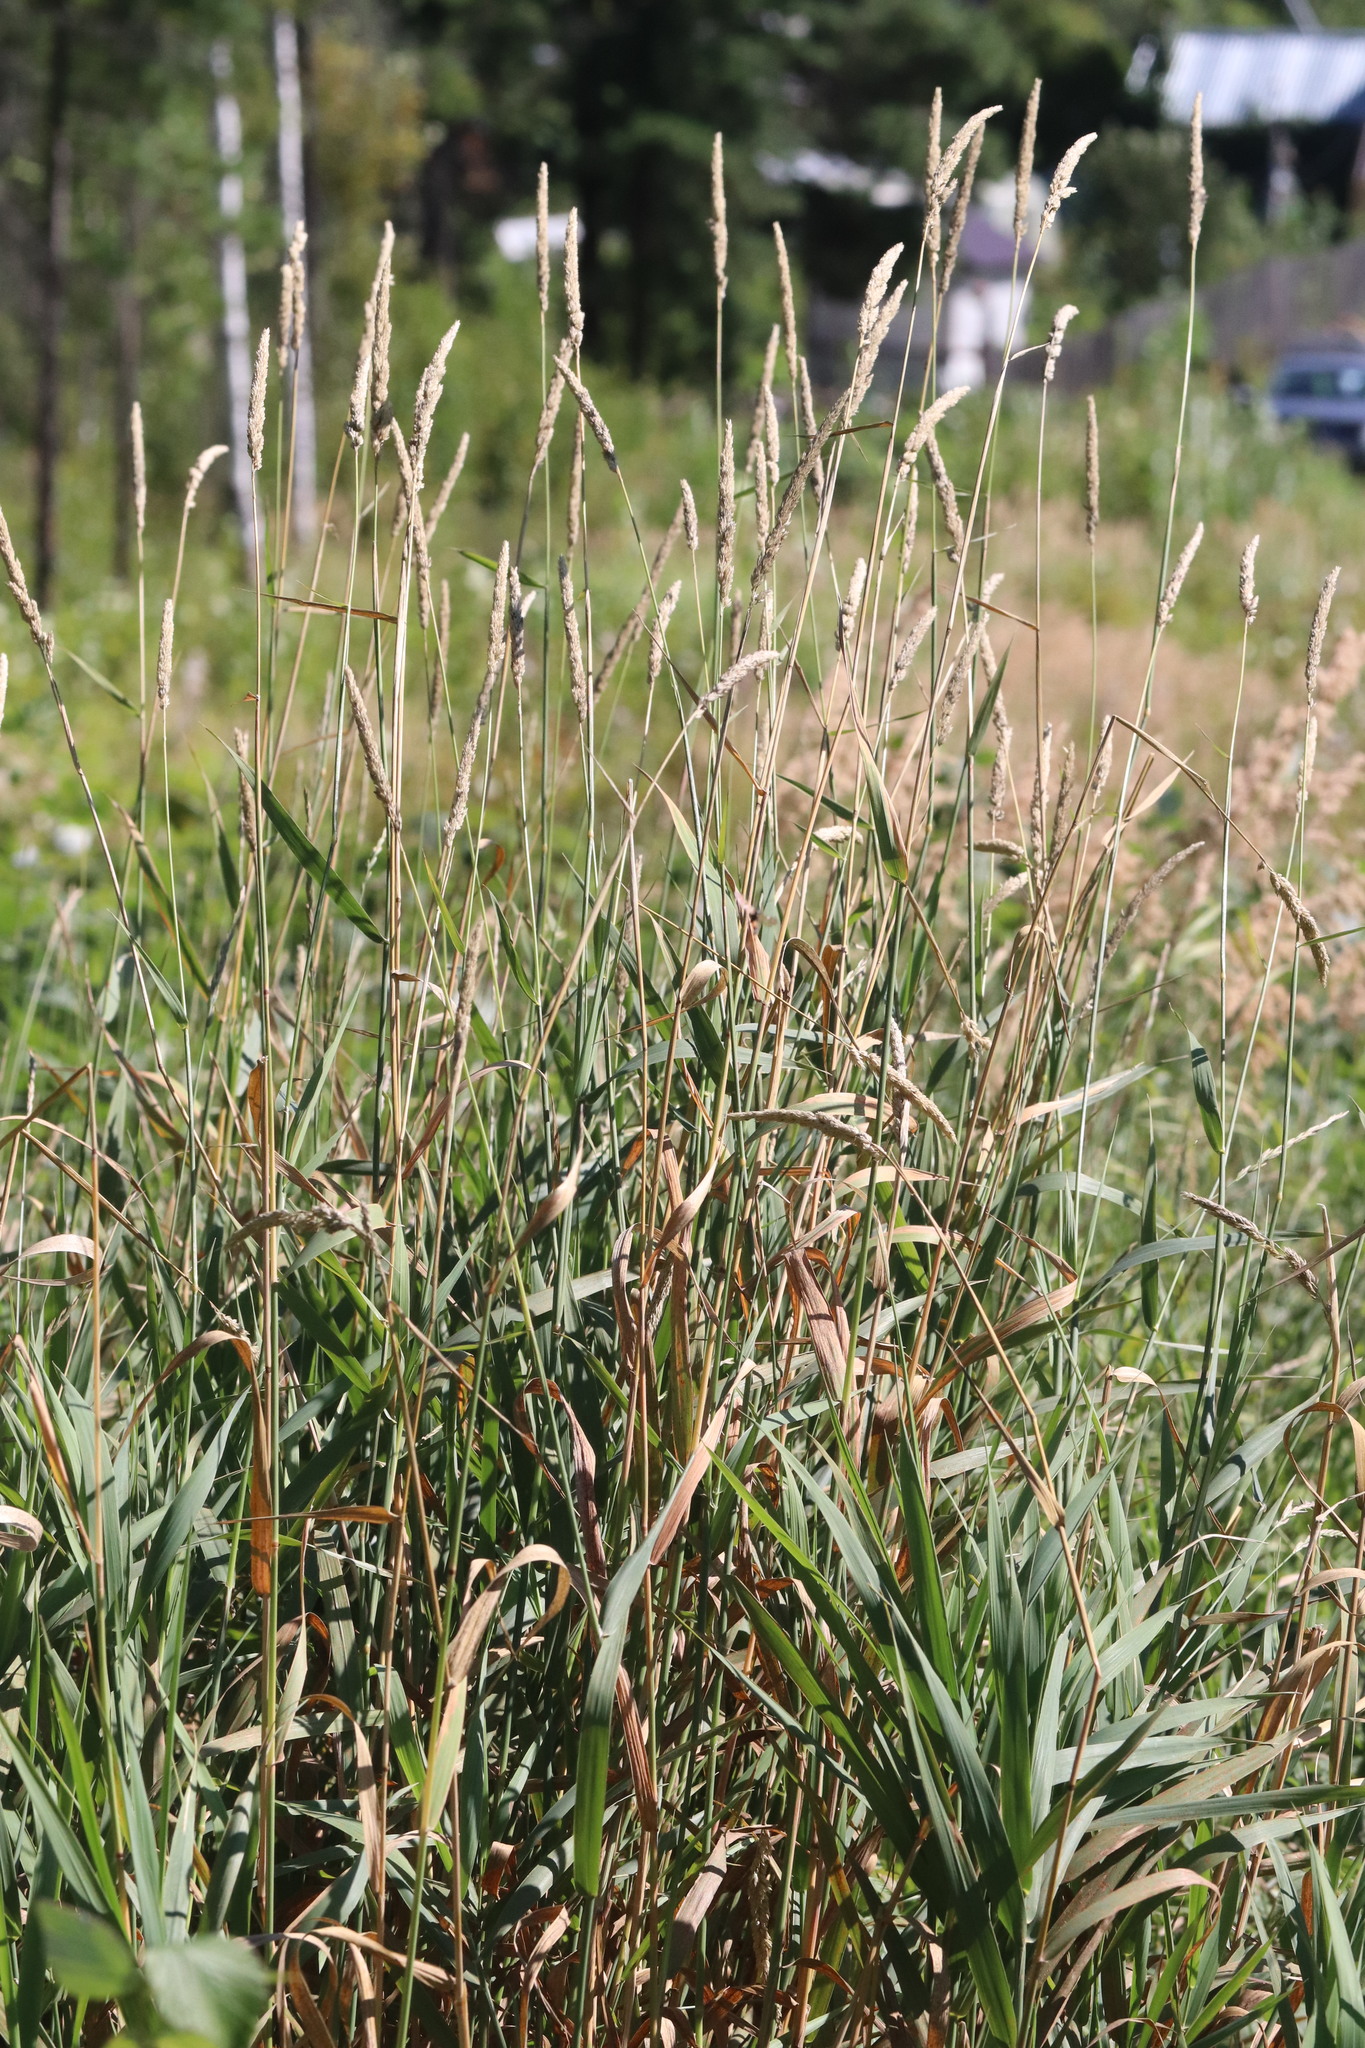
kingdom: Plantae
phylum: Tracheophyta
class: Liliopsida
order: Poales
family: Poaceae
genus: Phalaris
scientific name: Phalaris arundinacea
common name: Reed canary-grass
